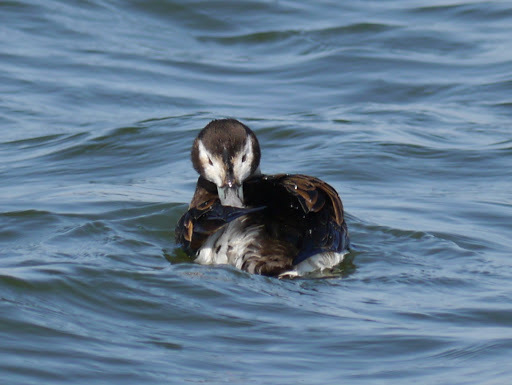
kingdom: Animalia
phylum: Chordata
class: Aves
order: Anseriformes
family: Anatidae
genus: Clangula
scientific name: Clangula hyemalis
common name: Long-tailed duck
